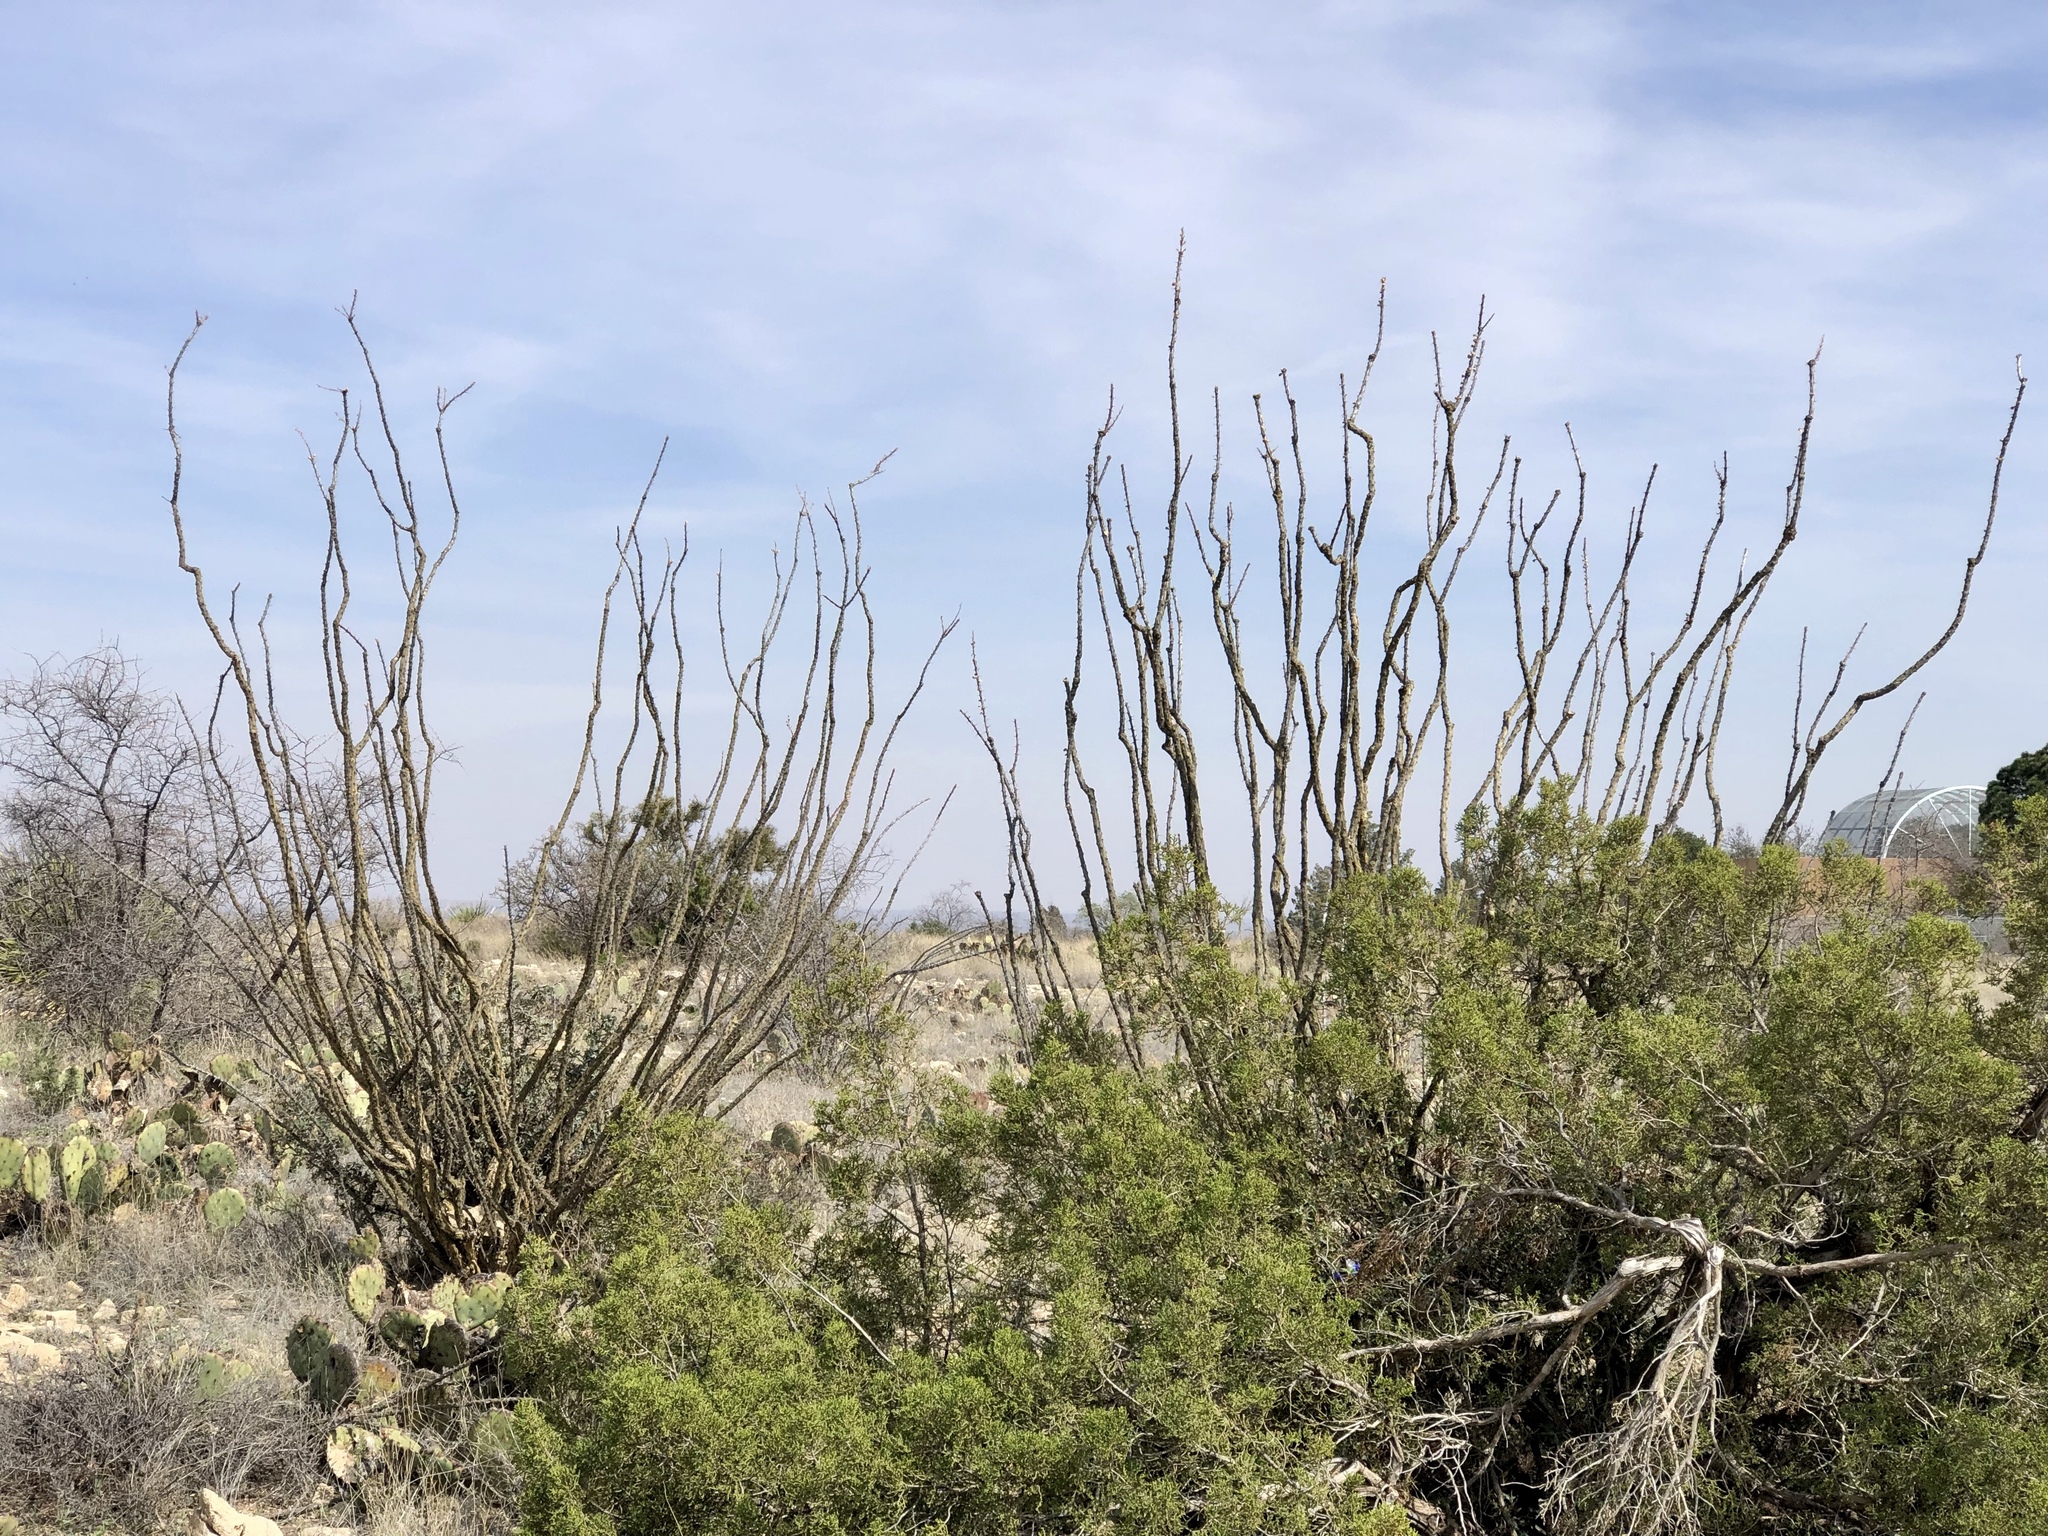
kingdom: Plantae
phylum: Tracheophyta
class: Magnoliopsida
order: Ericales
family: Fouquieriaceae
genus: Fouquieria
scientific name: Fouquieria splendens
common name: Vine-cactus
